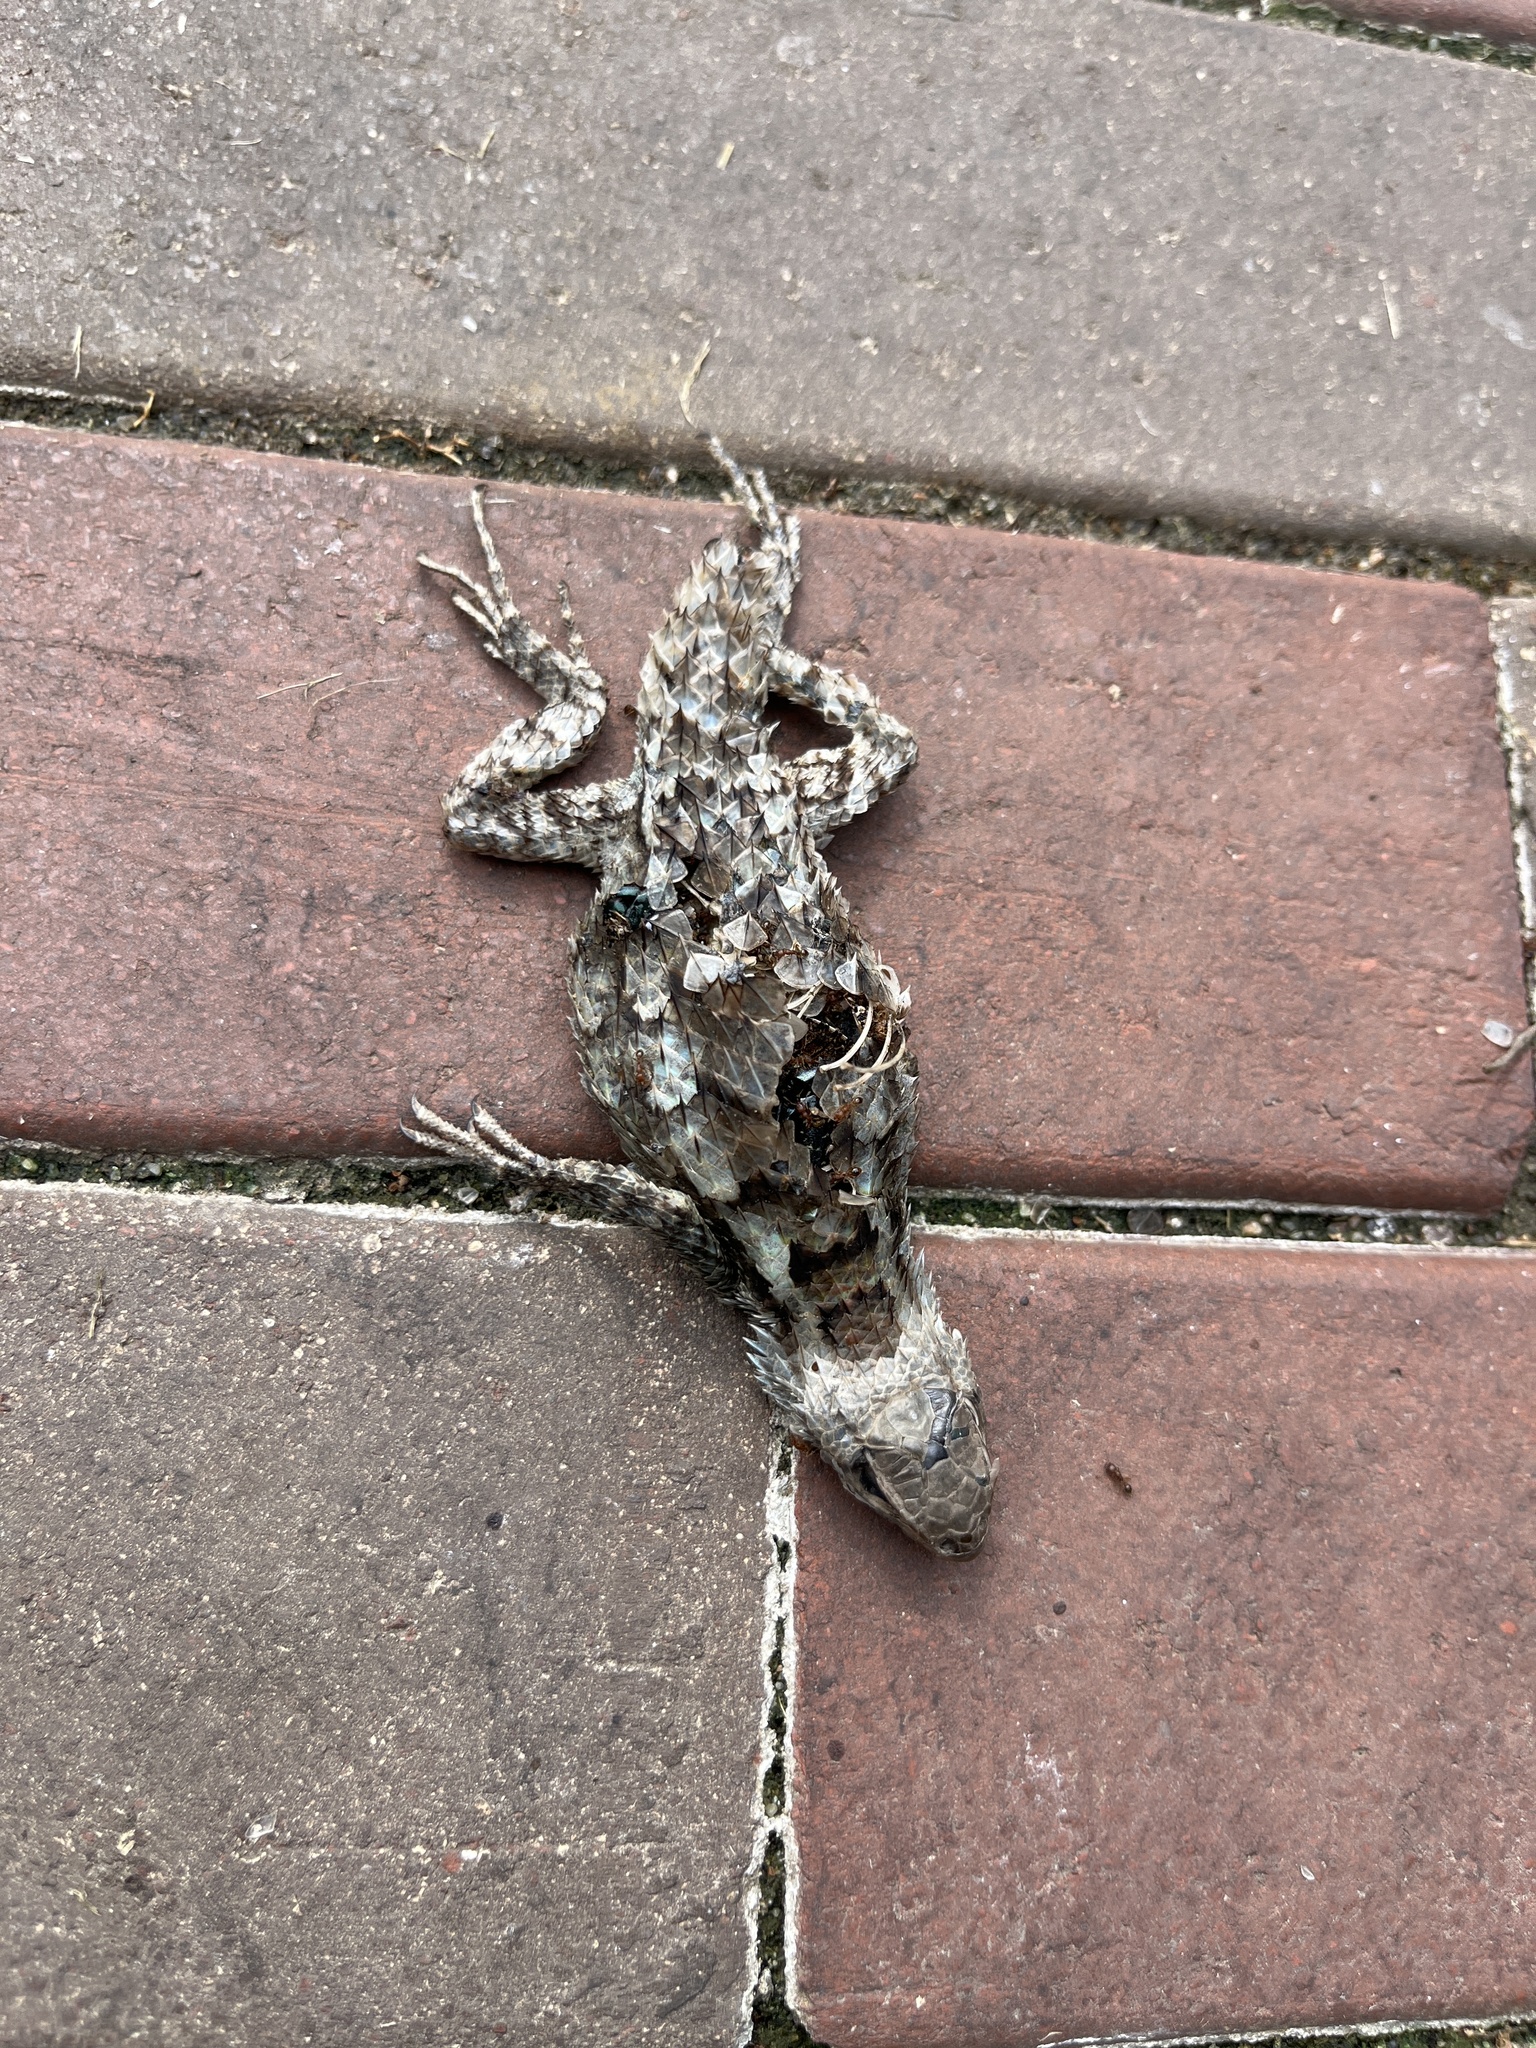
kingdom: Animalia
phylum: Chordata
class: Squamata
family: Phrynosomatidae
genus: Sceloporus
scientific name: Sceloporus olivaceus
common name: Texas spiny lizard
